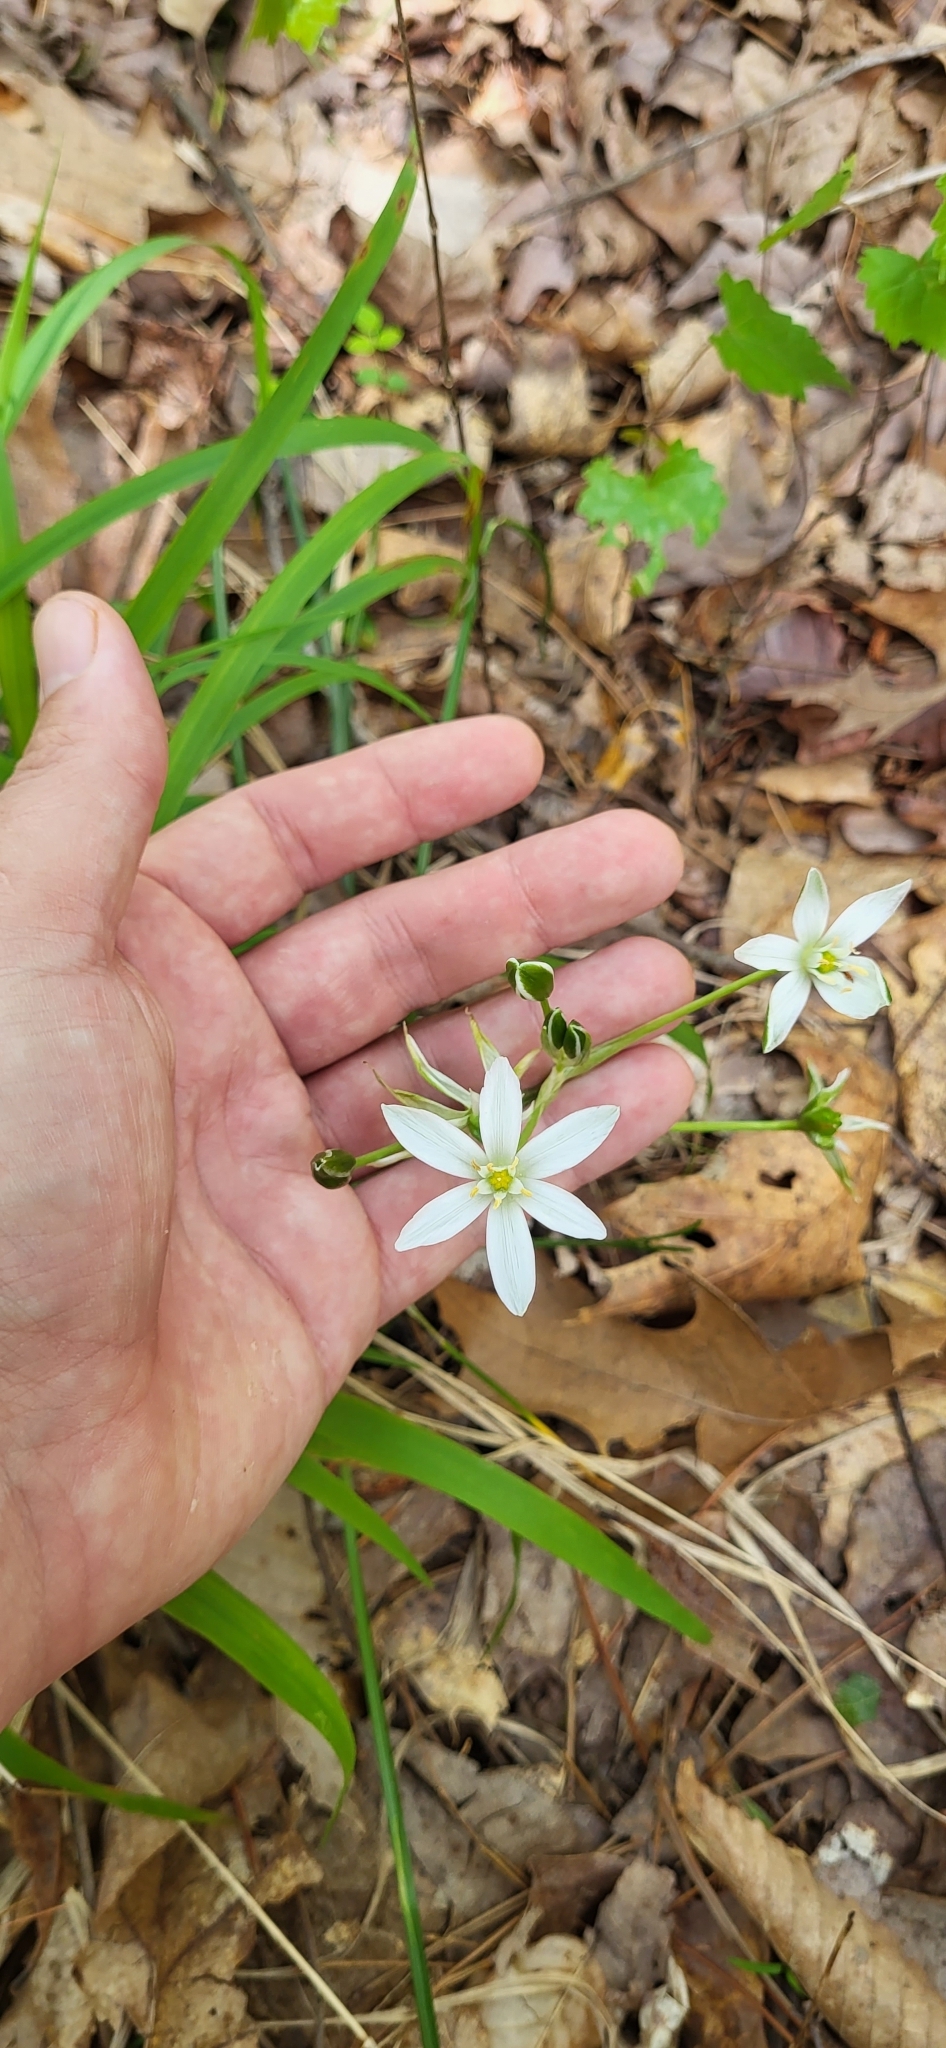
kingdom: Plantae
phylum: Tracheophyta
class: Liliopsida
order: Asparagales
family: Asparagaceae
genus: Ornithogalum
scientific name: Ornithogalum umbellatum
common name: Garden star-of-bethlehem
